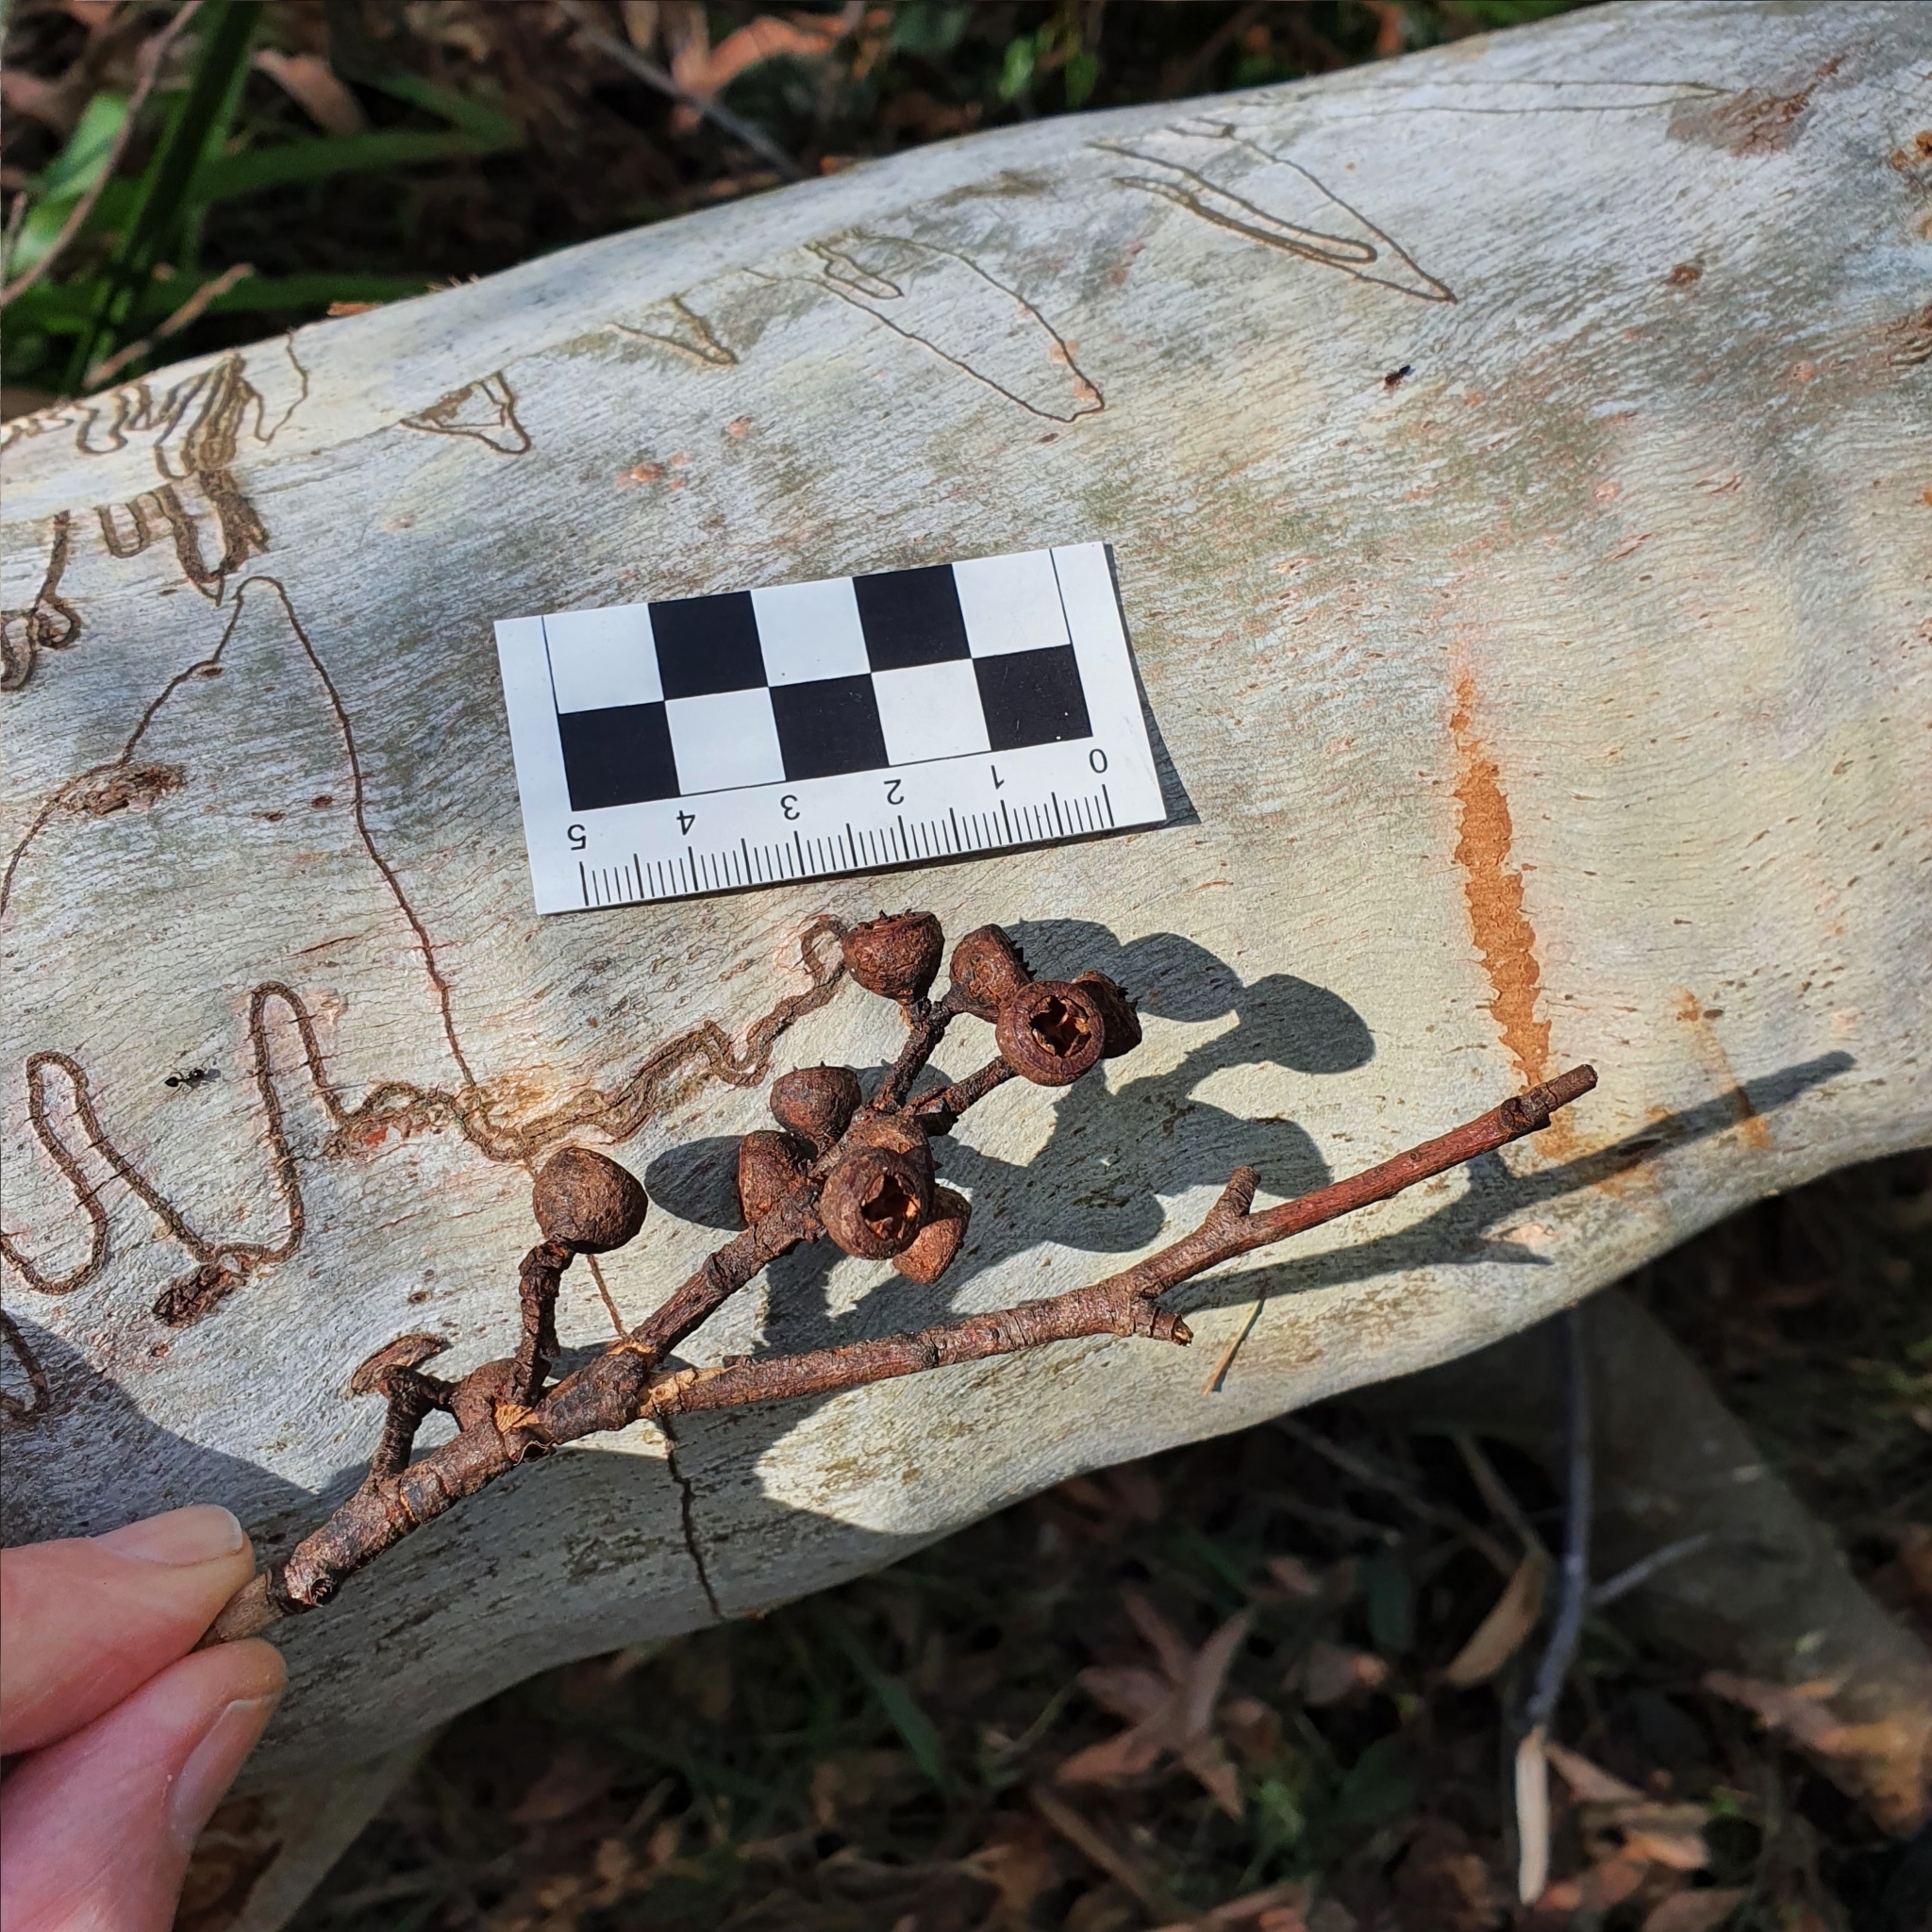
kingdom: Plantae
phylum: Tracheophyta
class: Magnoliopsida
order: Myrtales
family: Myrtaceae
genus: Eucalyptus
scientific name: Eucalyptus pilularis
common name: Blackbutt
